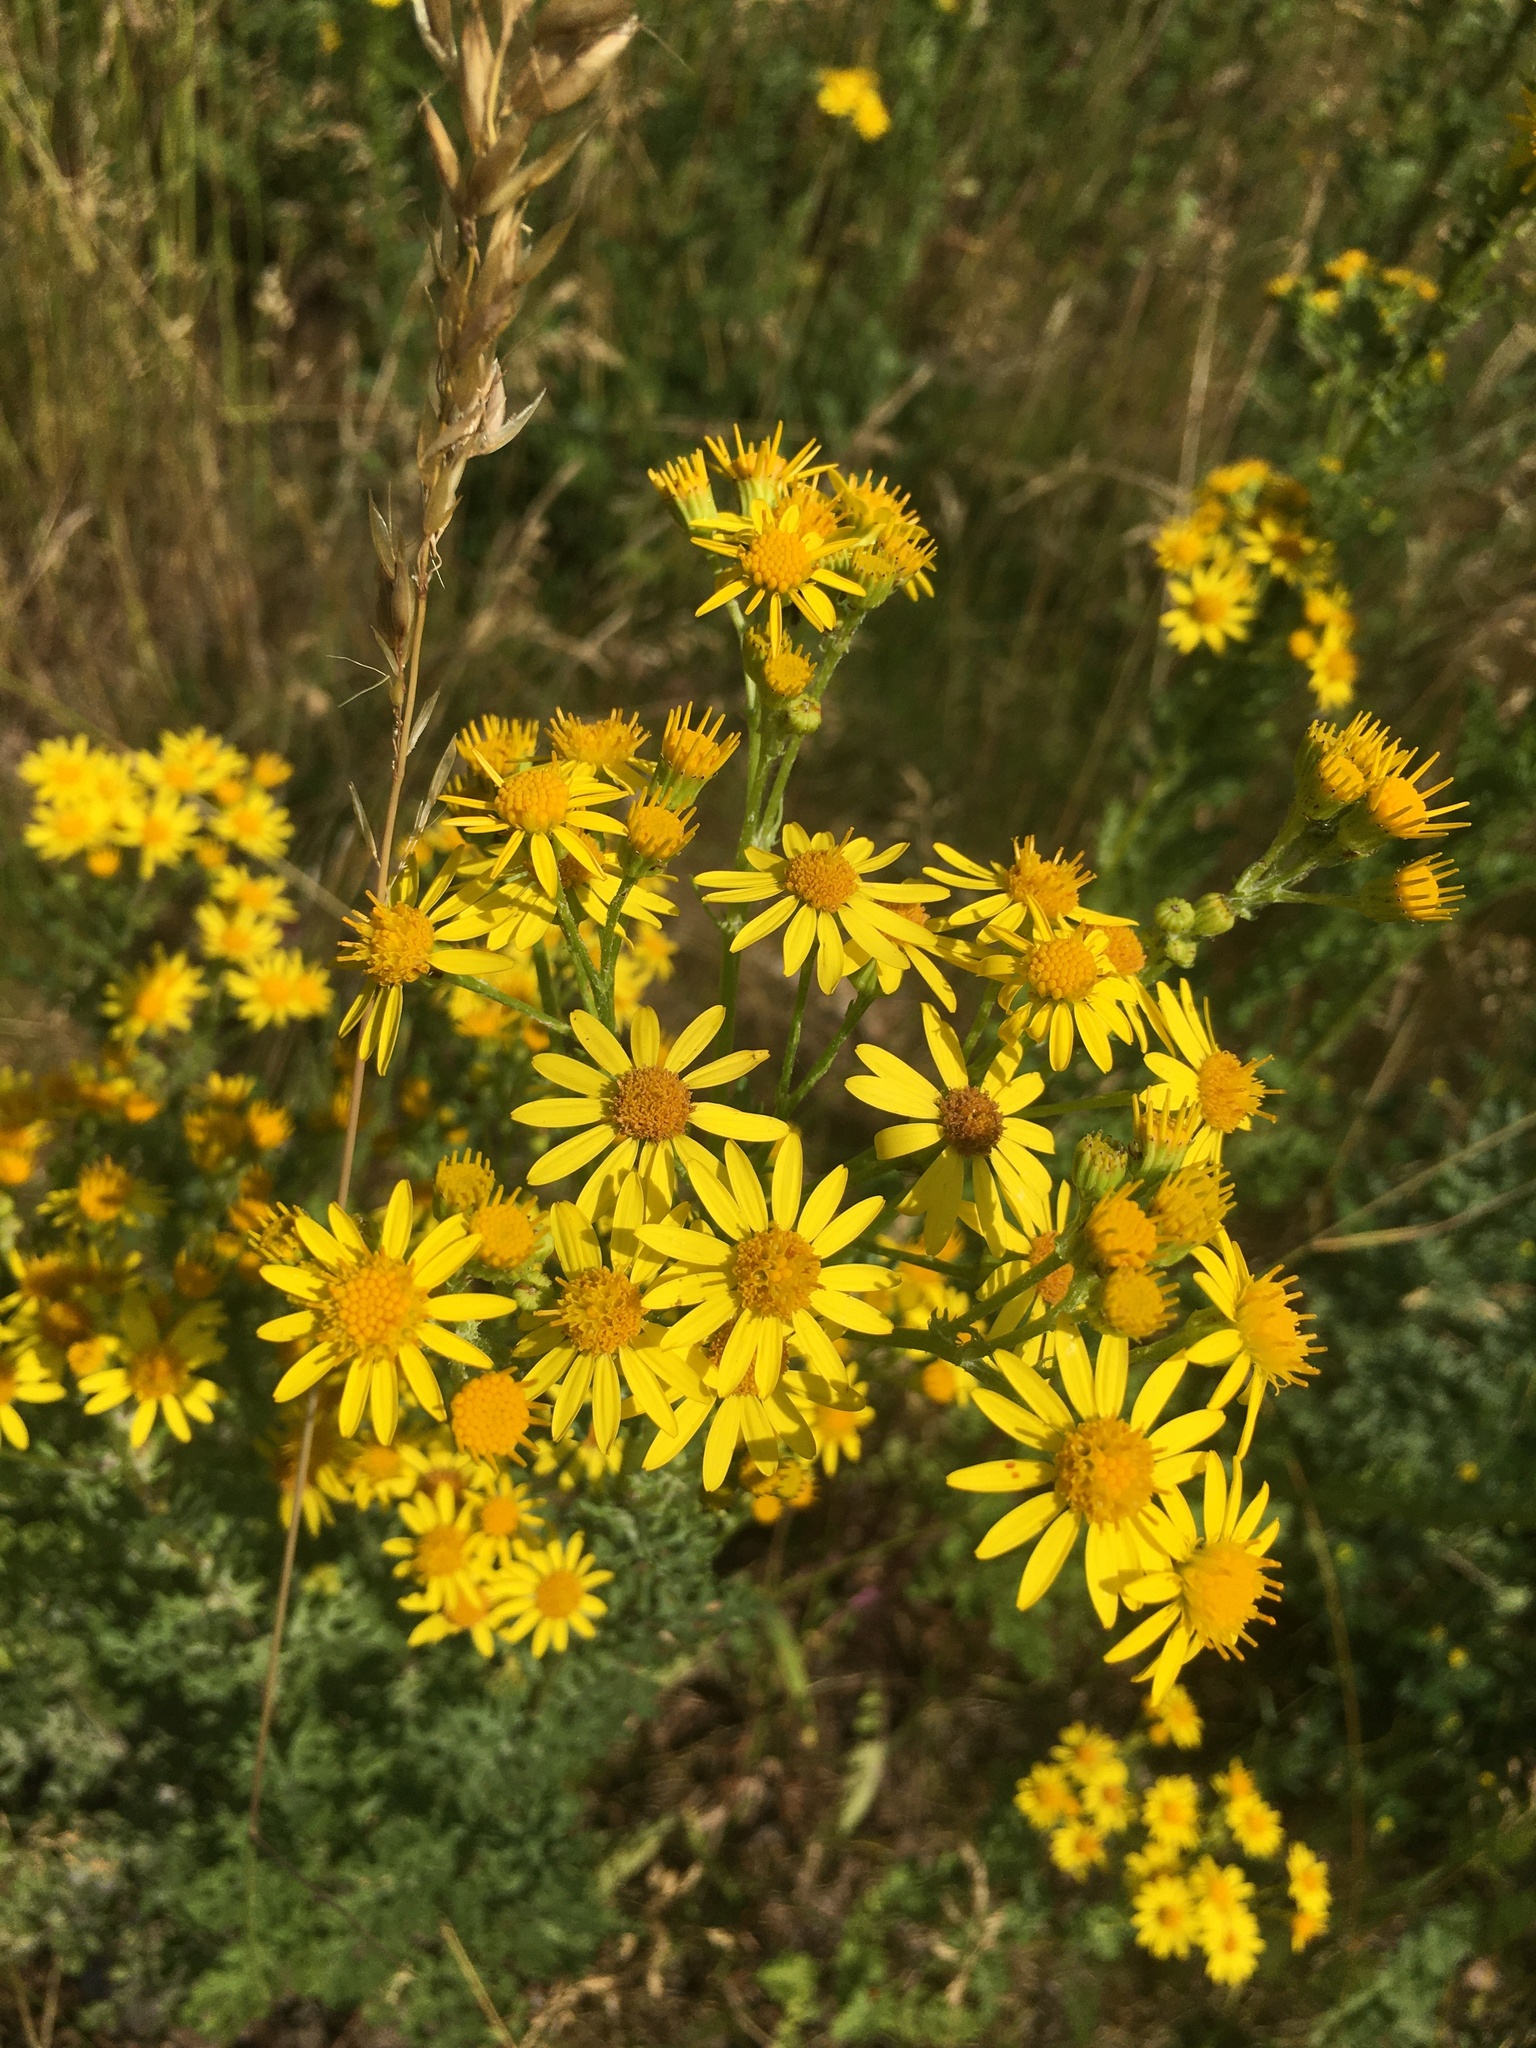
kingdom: Plantae
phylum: Tracheophyta
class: Magnoliopsida
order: Asterales
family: Asteraceae
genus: Jacobaea
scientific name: Jacobaea vulgaris
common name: Stinking willie
